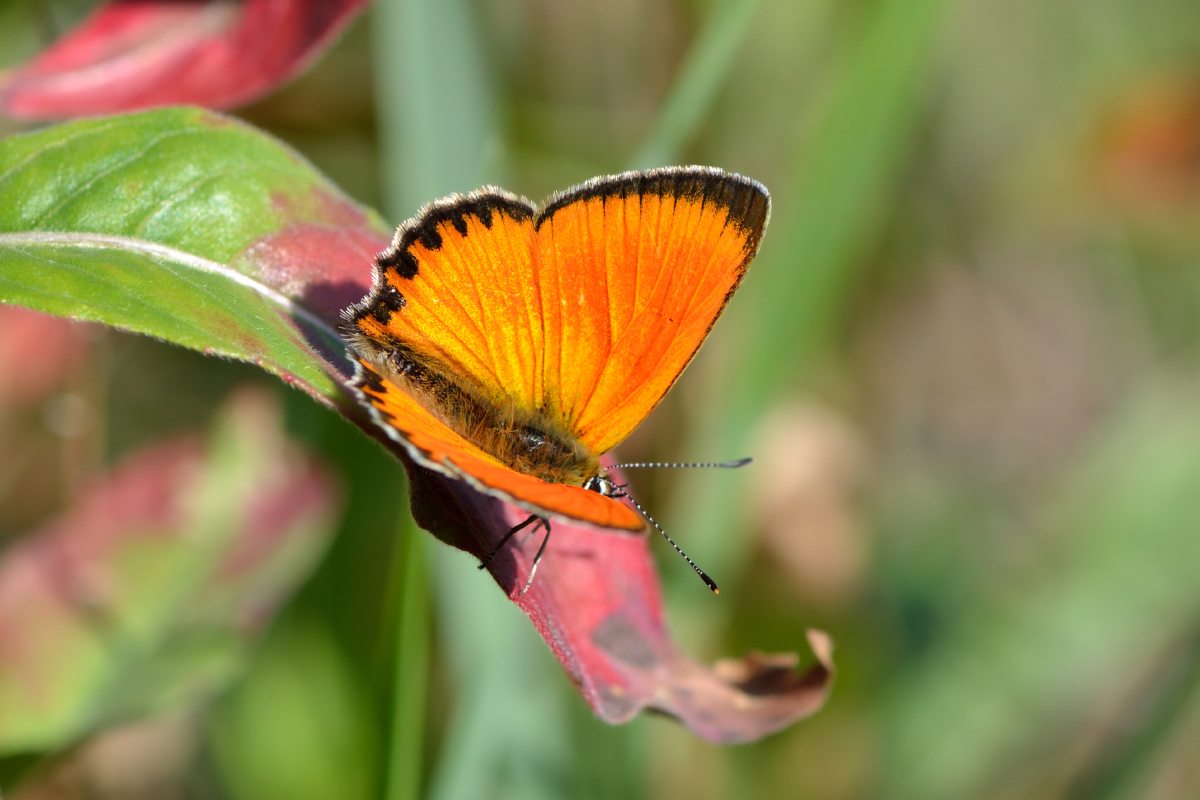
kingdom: Animalia
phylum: Arthropoda
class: Insecta
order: Lepidoptera
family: Lycaenidae
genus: Lycaena
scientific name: Lycaena virgaureae
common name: Scarce copper
